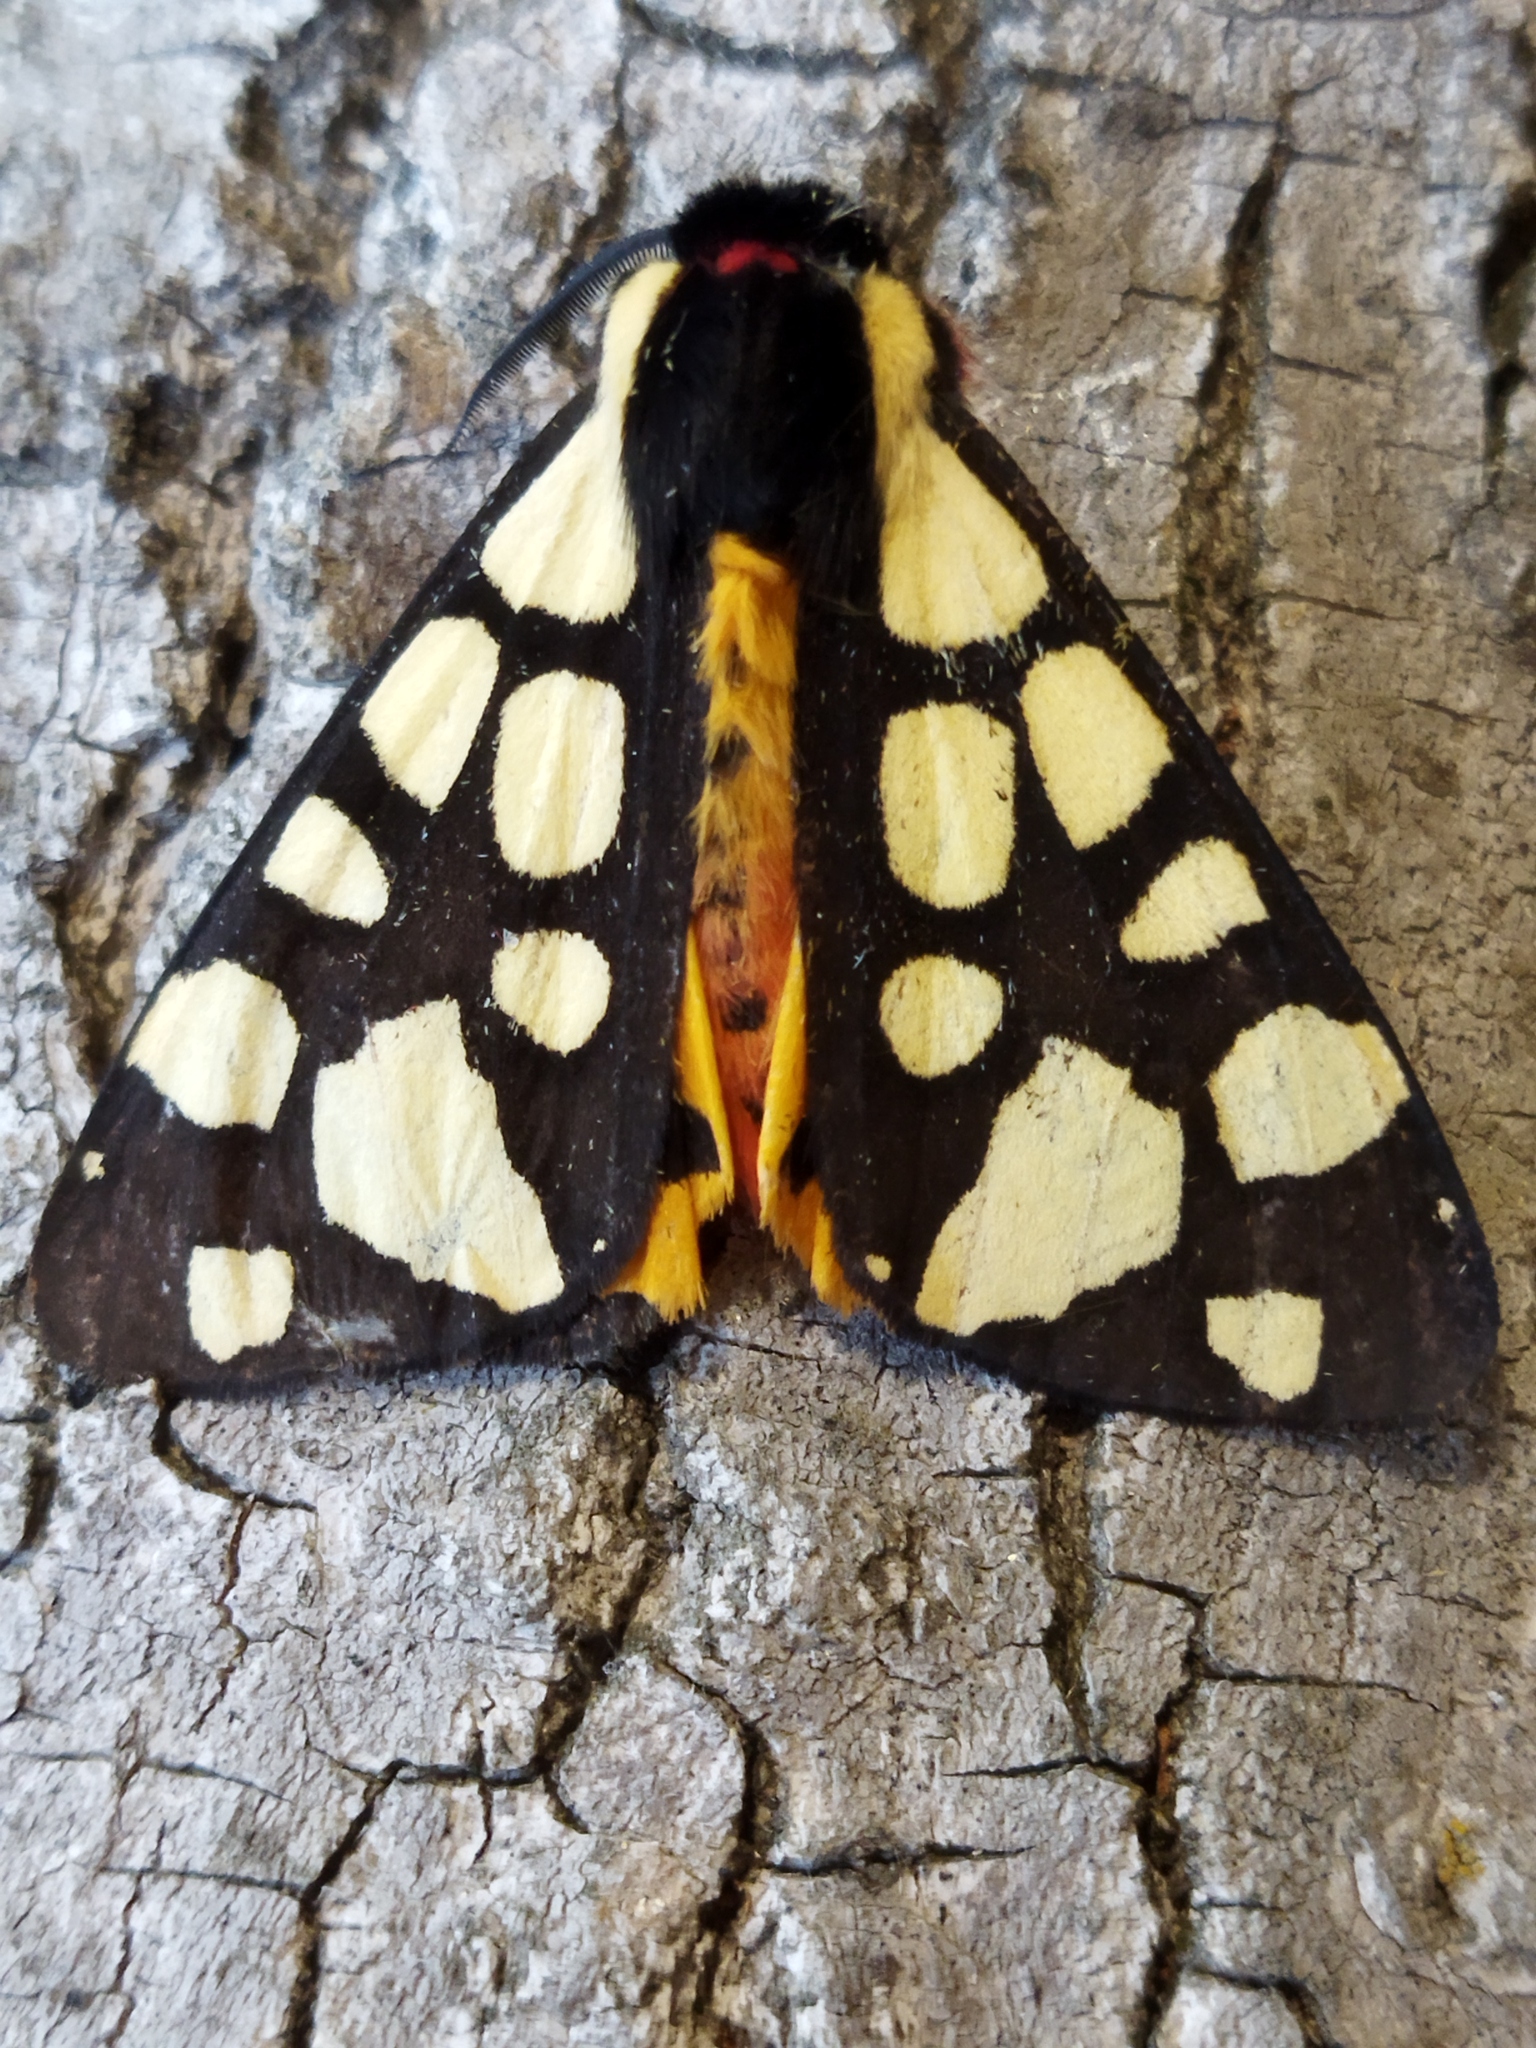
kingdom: Animalia
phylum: Arthropoda
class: Insecta
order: Lepidoptera
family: Erebidae
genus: Epicallia
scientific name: Epicallia villica
